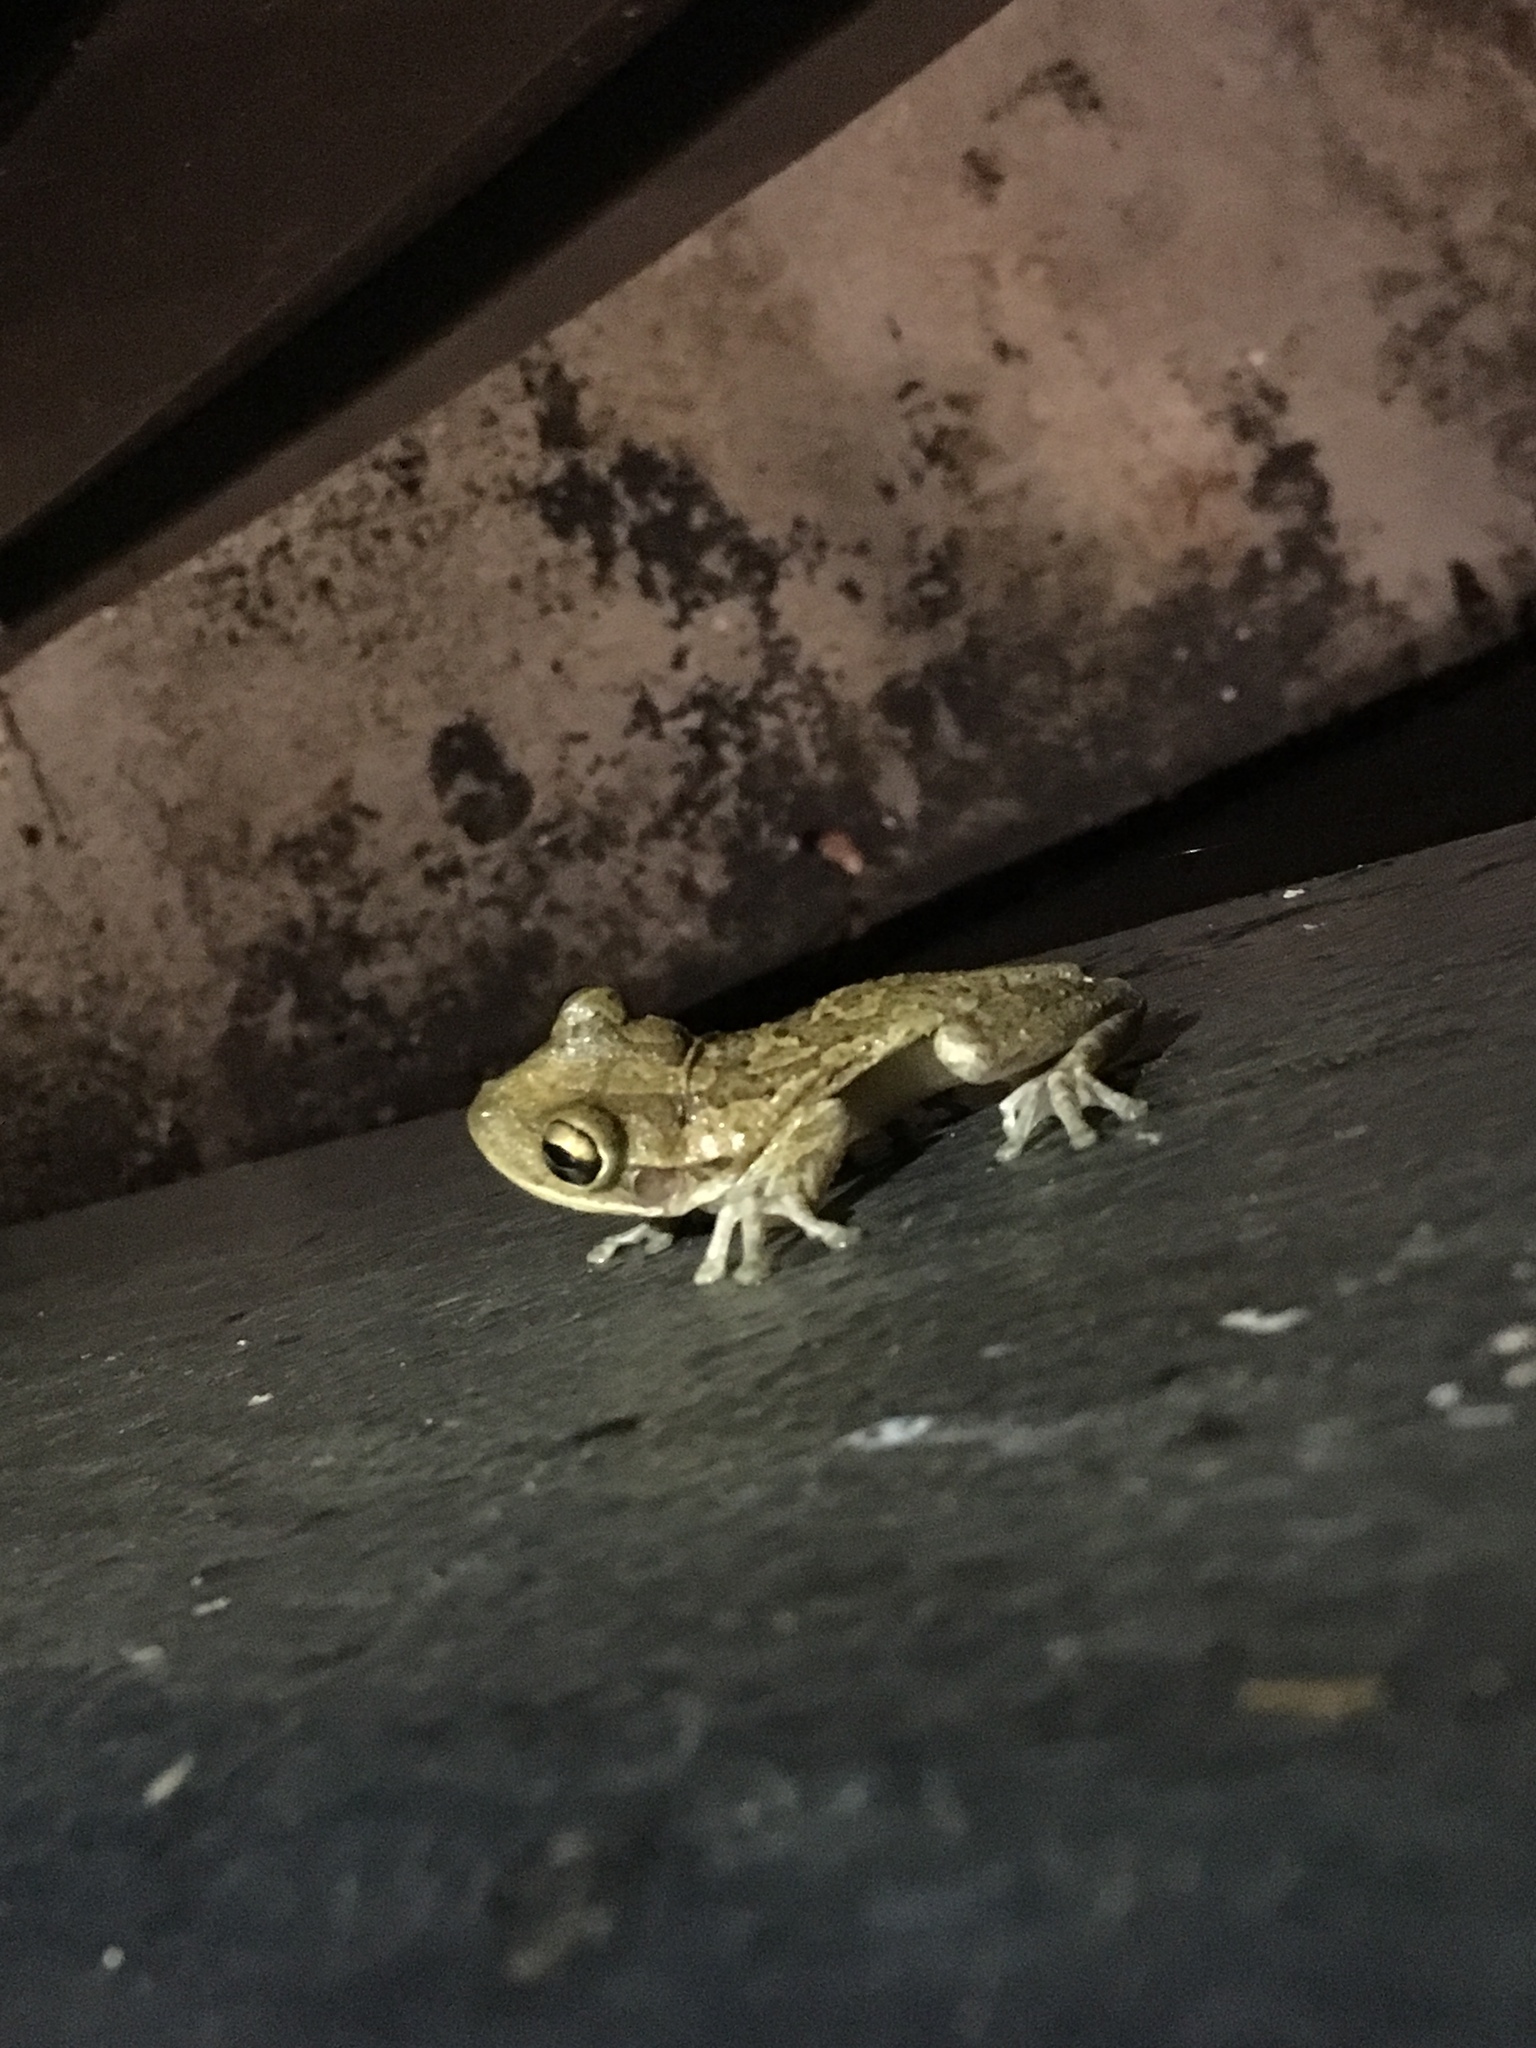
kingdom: Animalia
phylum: Chordata
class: Amphibia
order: Anura
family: Hylidae
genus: Osteopilus
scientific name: Osteopilus septentrionalis
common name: Cuban treefrog
